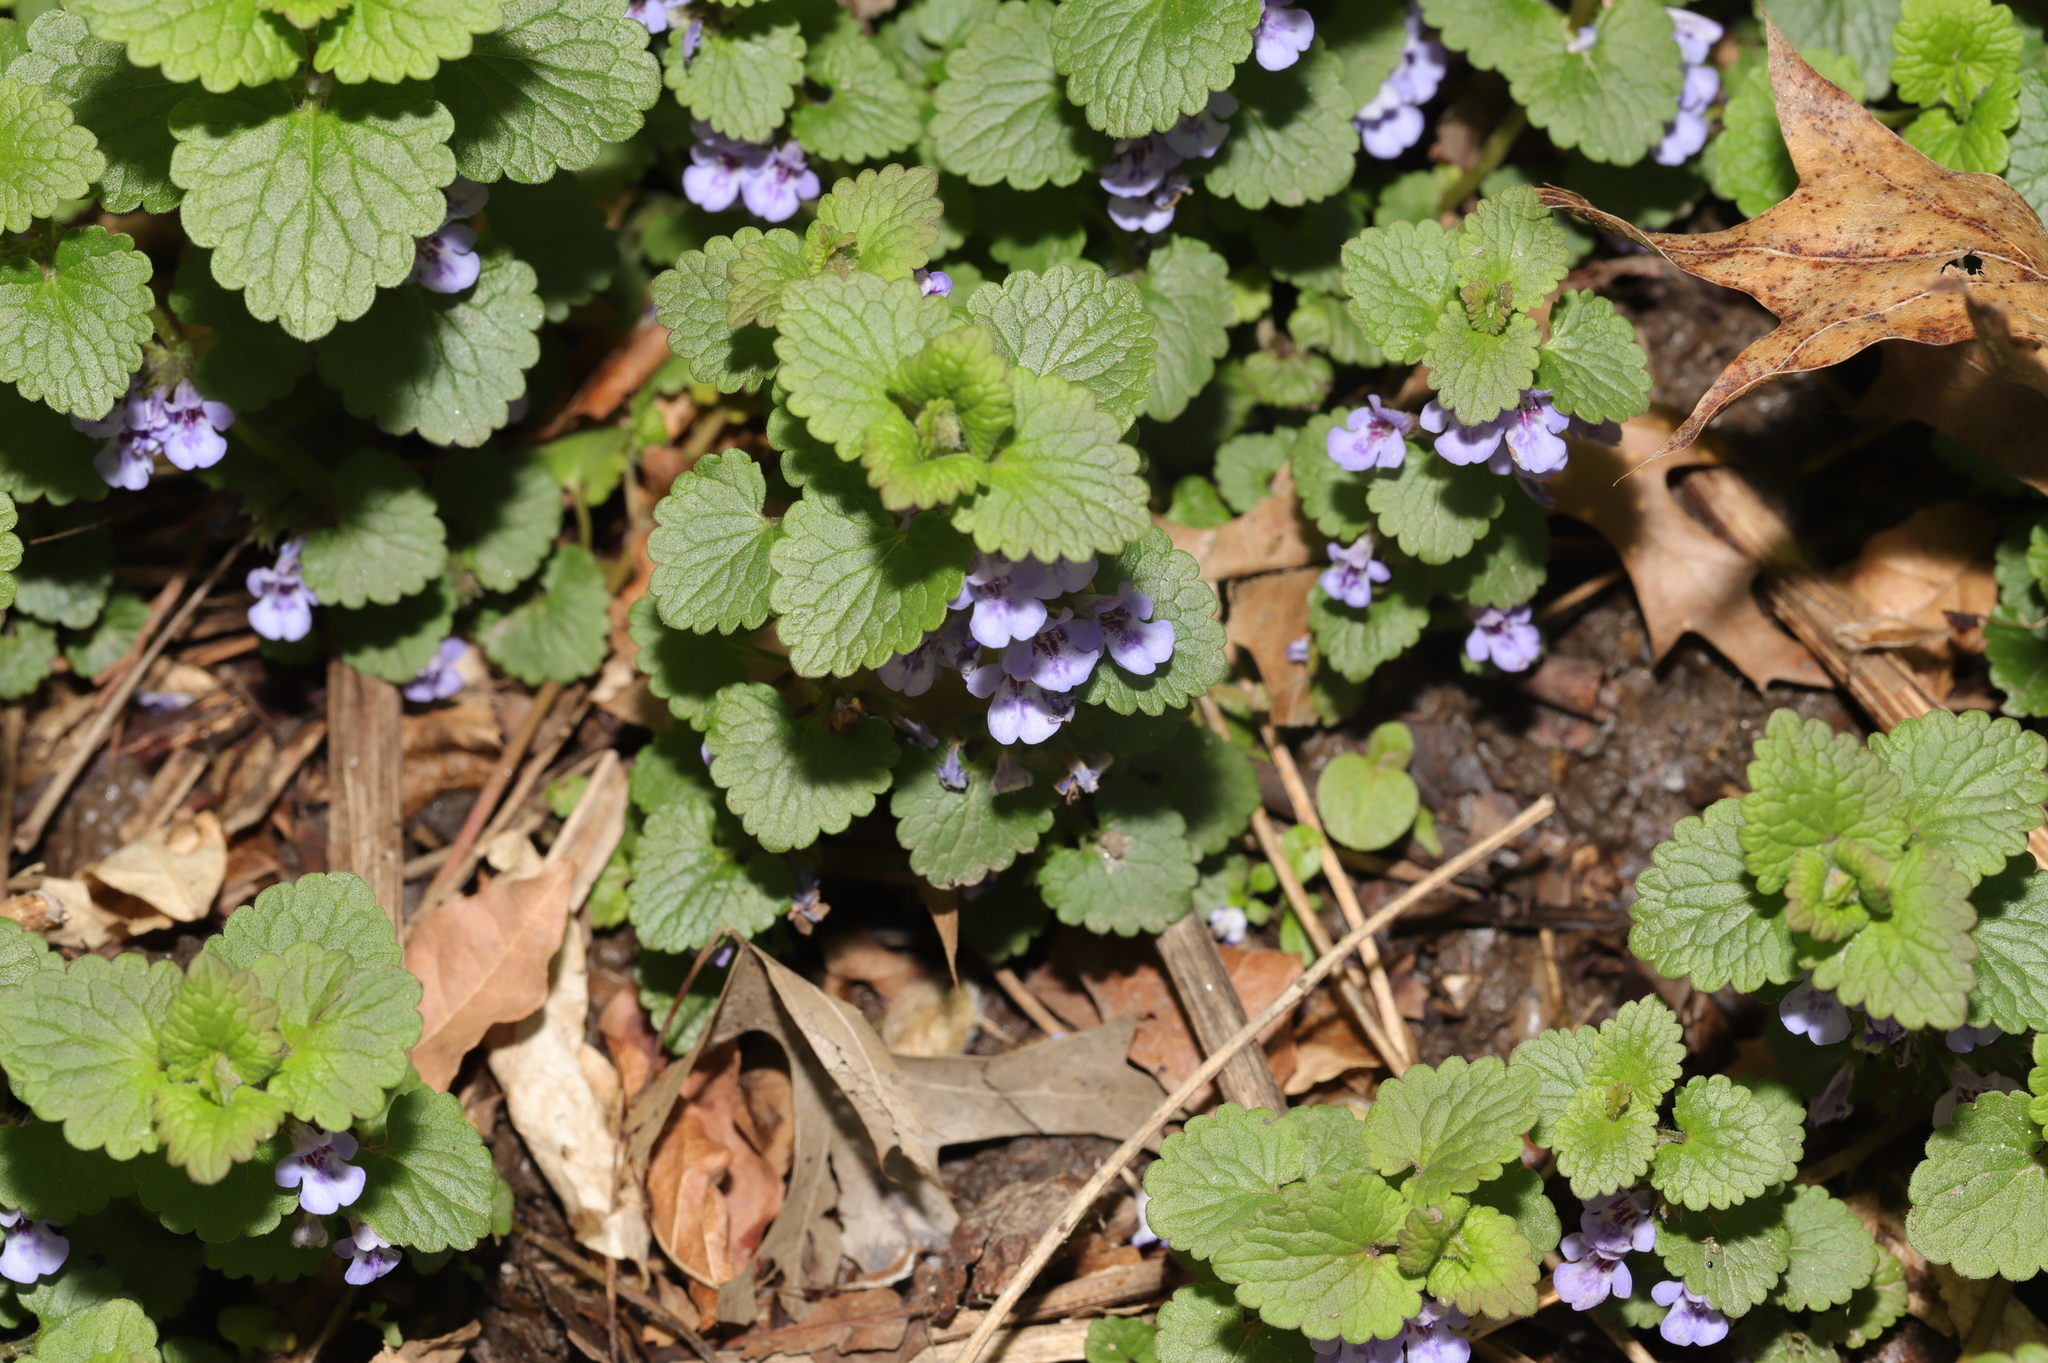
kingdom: Plantae
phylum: Tracheophyta
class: Magnoliopsida
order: Lamiales
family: Lamiaceae
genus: Glechoma
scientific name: Glechoma hederacea
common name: Ground ivy
